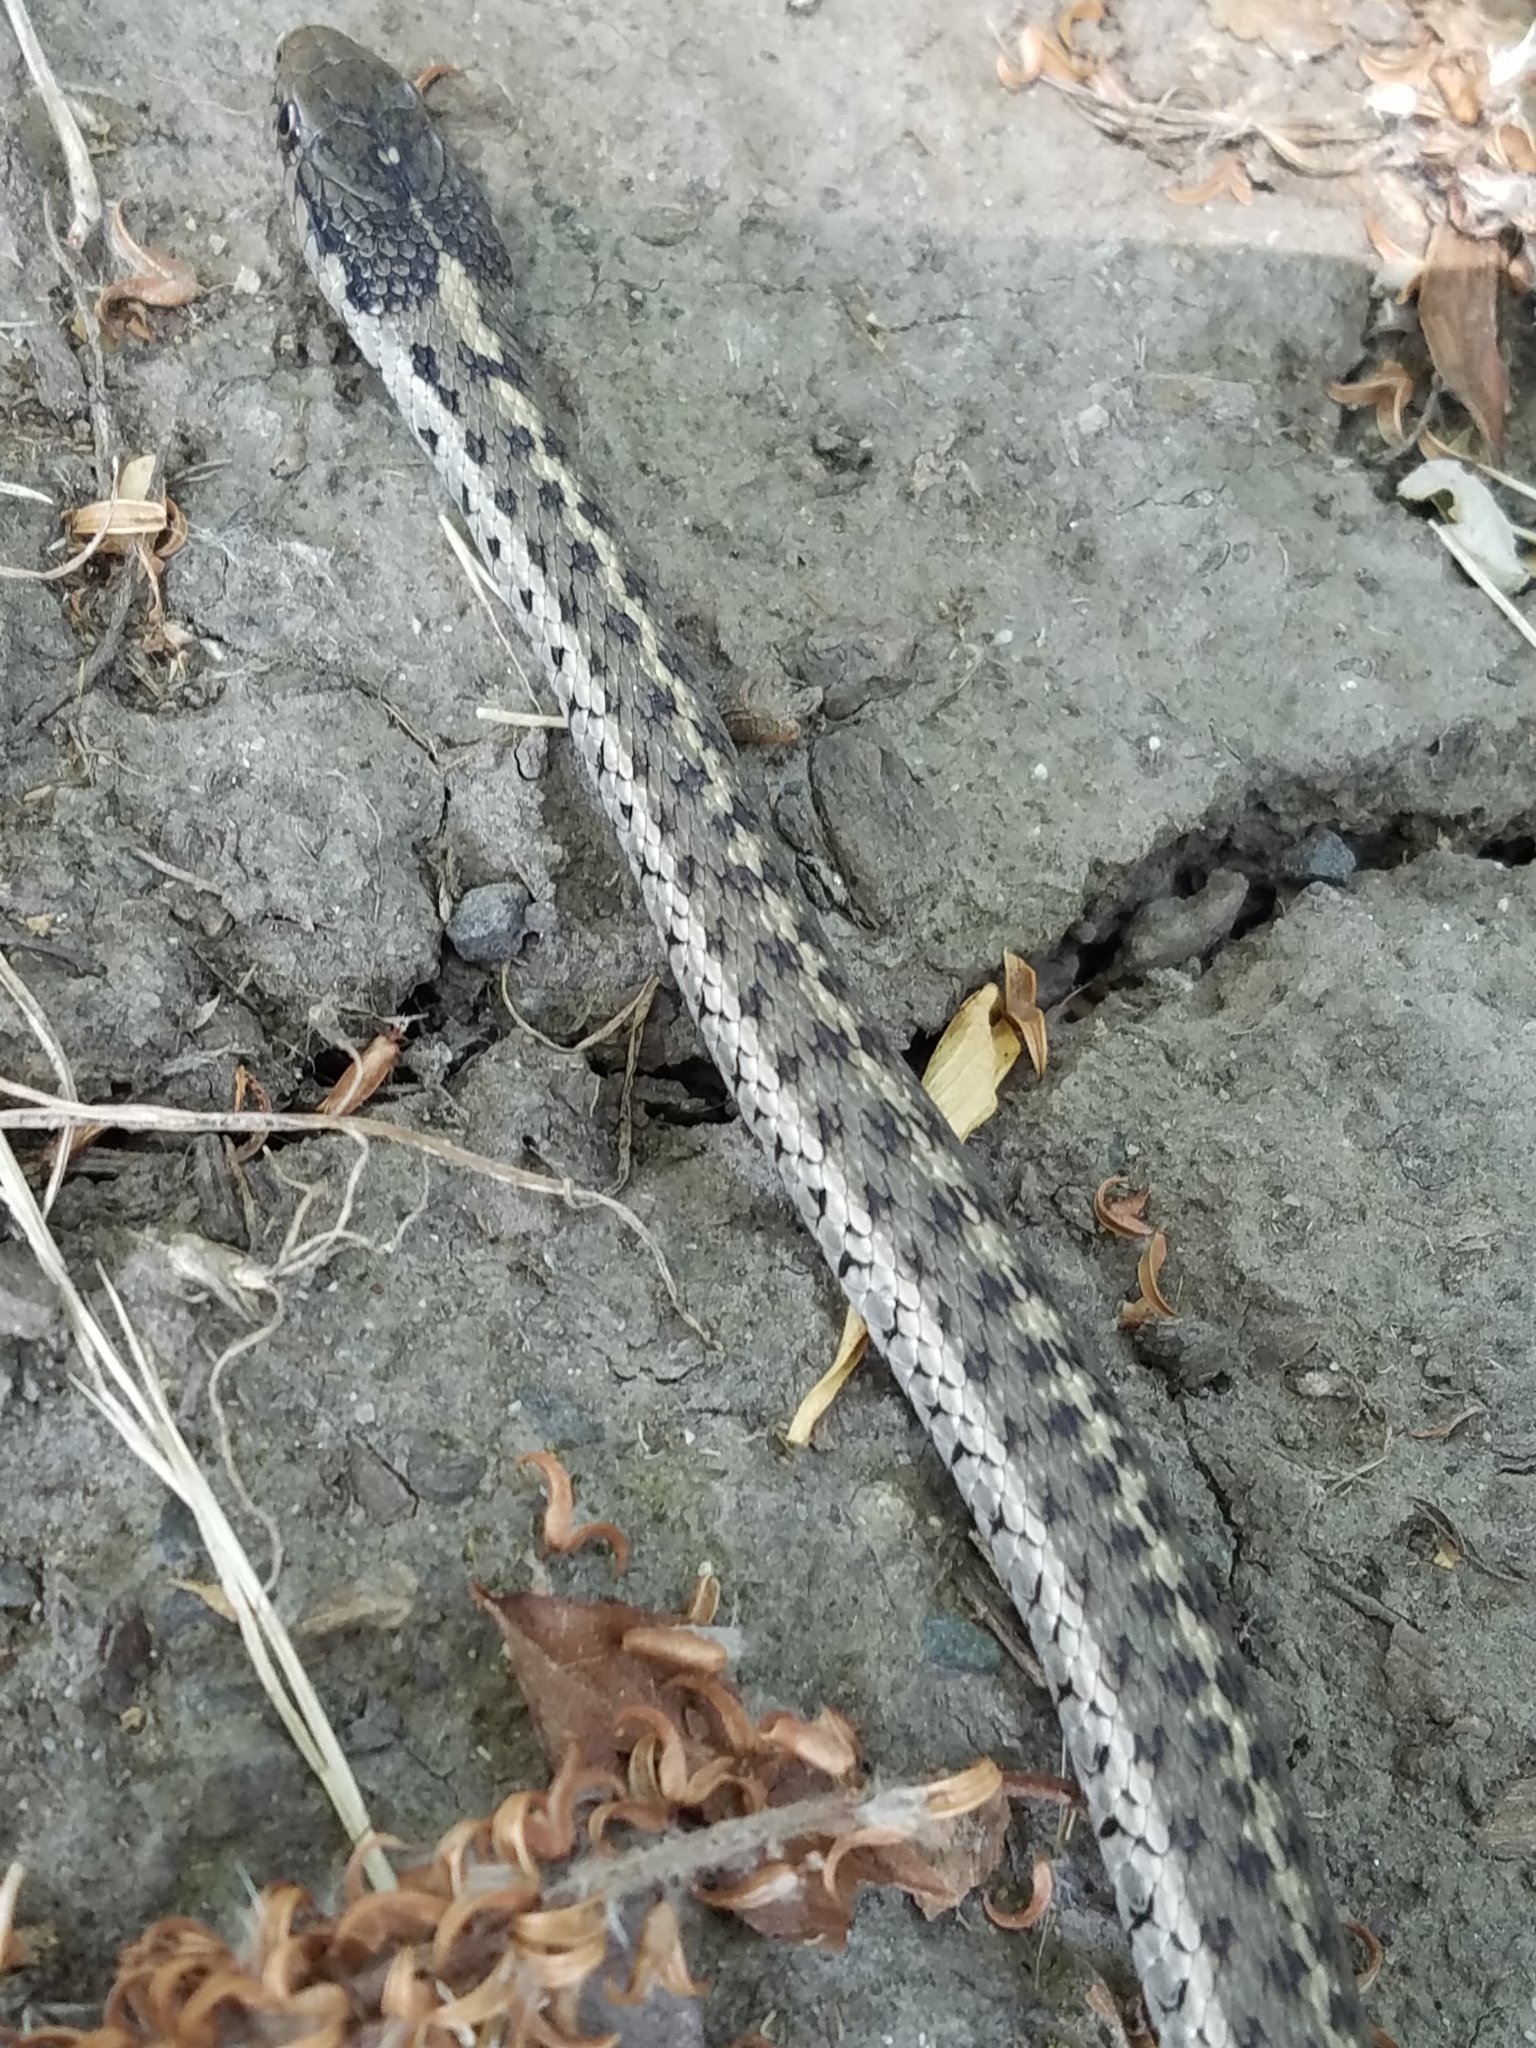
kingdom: Animalia
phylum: Chordata
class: Squamata
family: Colubridae
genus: Thamnophis
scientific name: Thamnophis elegans
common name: Western terrestrial garter snake
